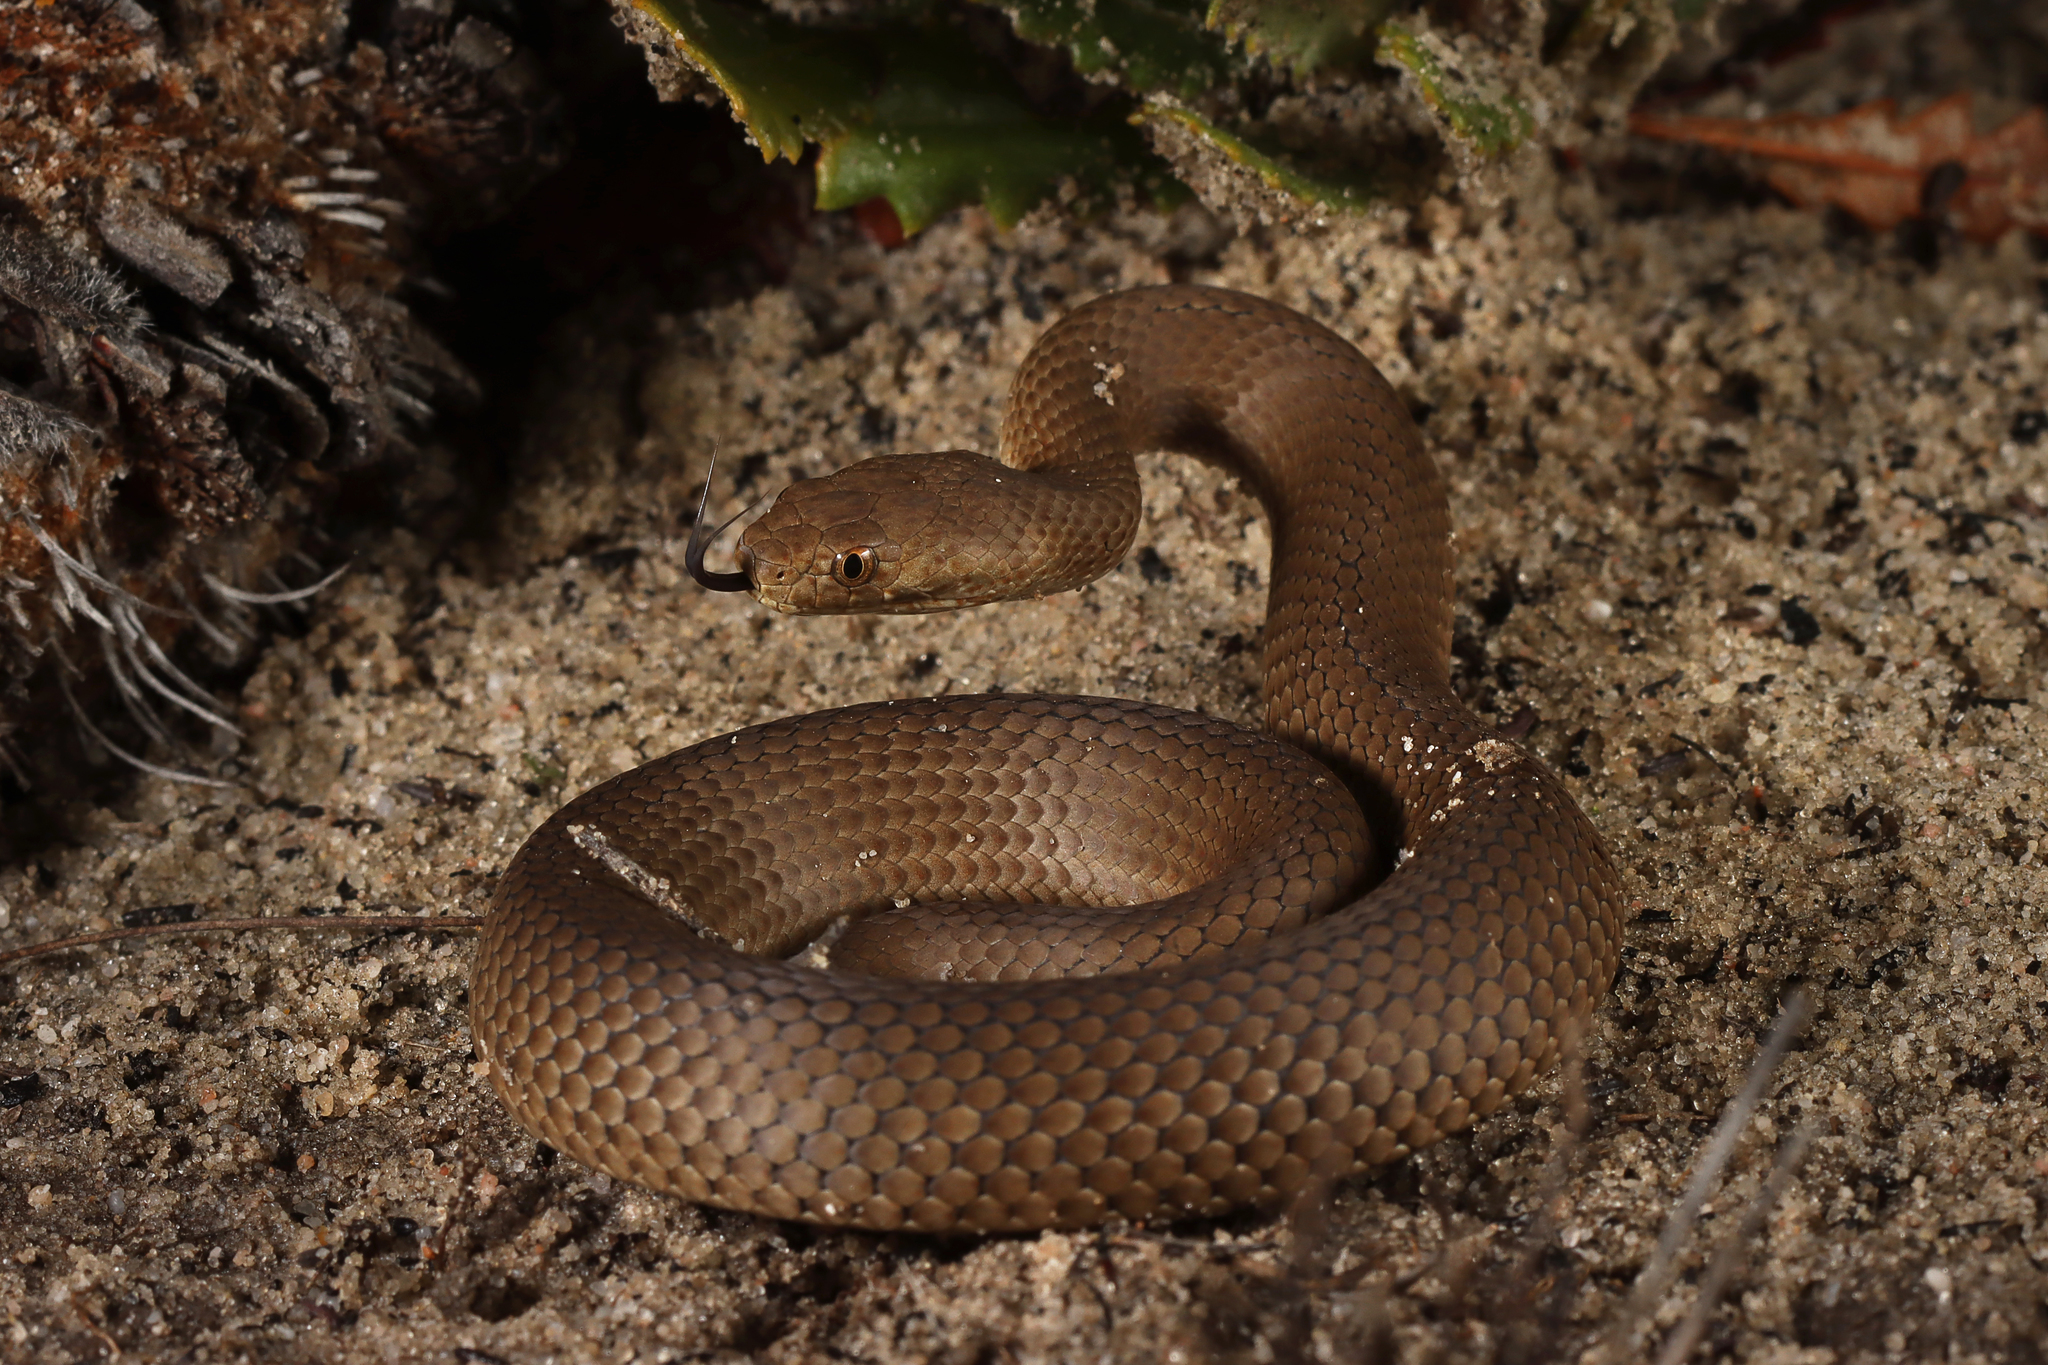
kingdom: Animalia
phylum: Chordata
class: Squamata
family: Elapidae
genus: Echiopsis
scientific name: Echiopsis curta
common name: Bardick
